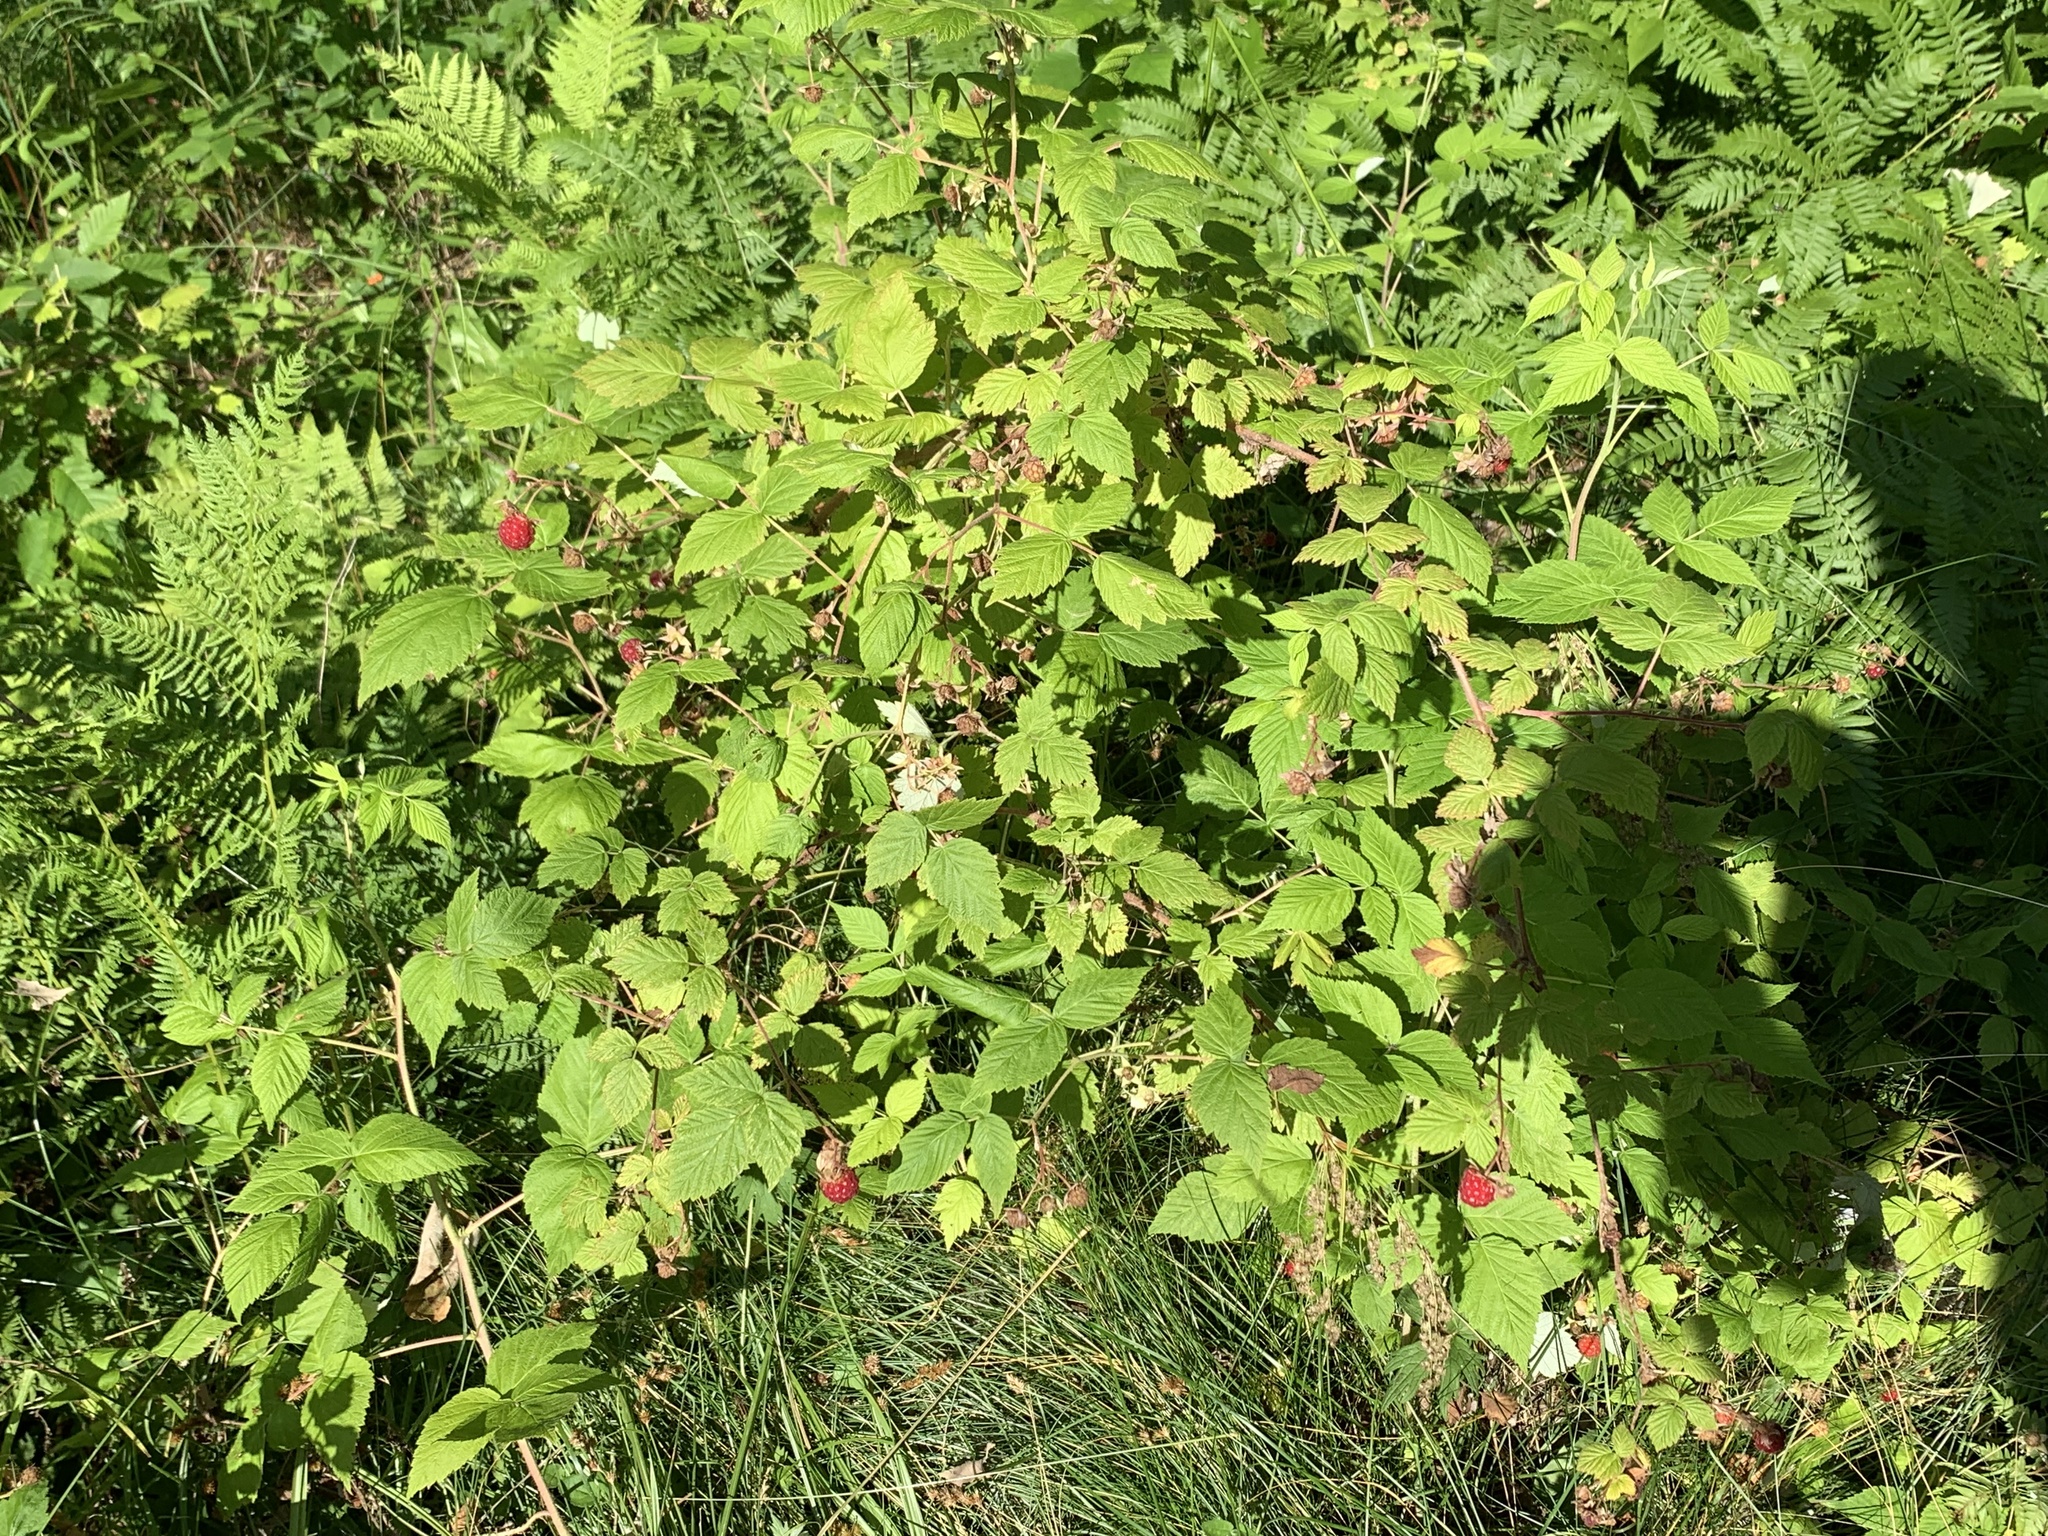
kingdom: Plantae
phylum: Tracheophyta
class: Magnoliopsida
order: Rosales
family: Rosaceae
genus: Rubus
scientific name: Rubus idaeus
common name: Raspberry
